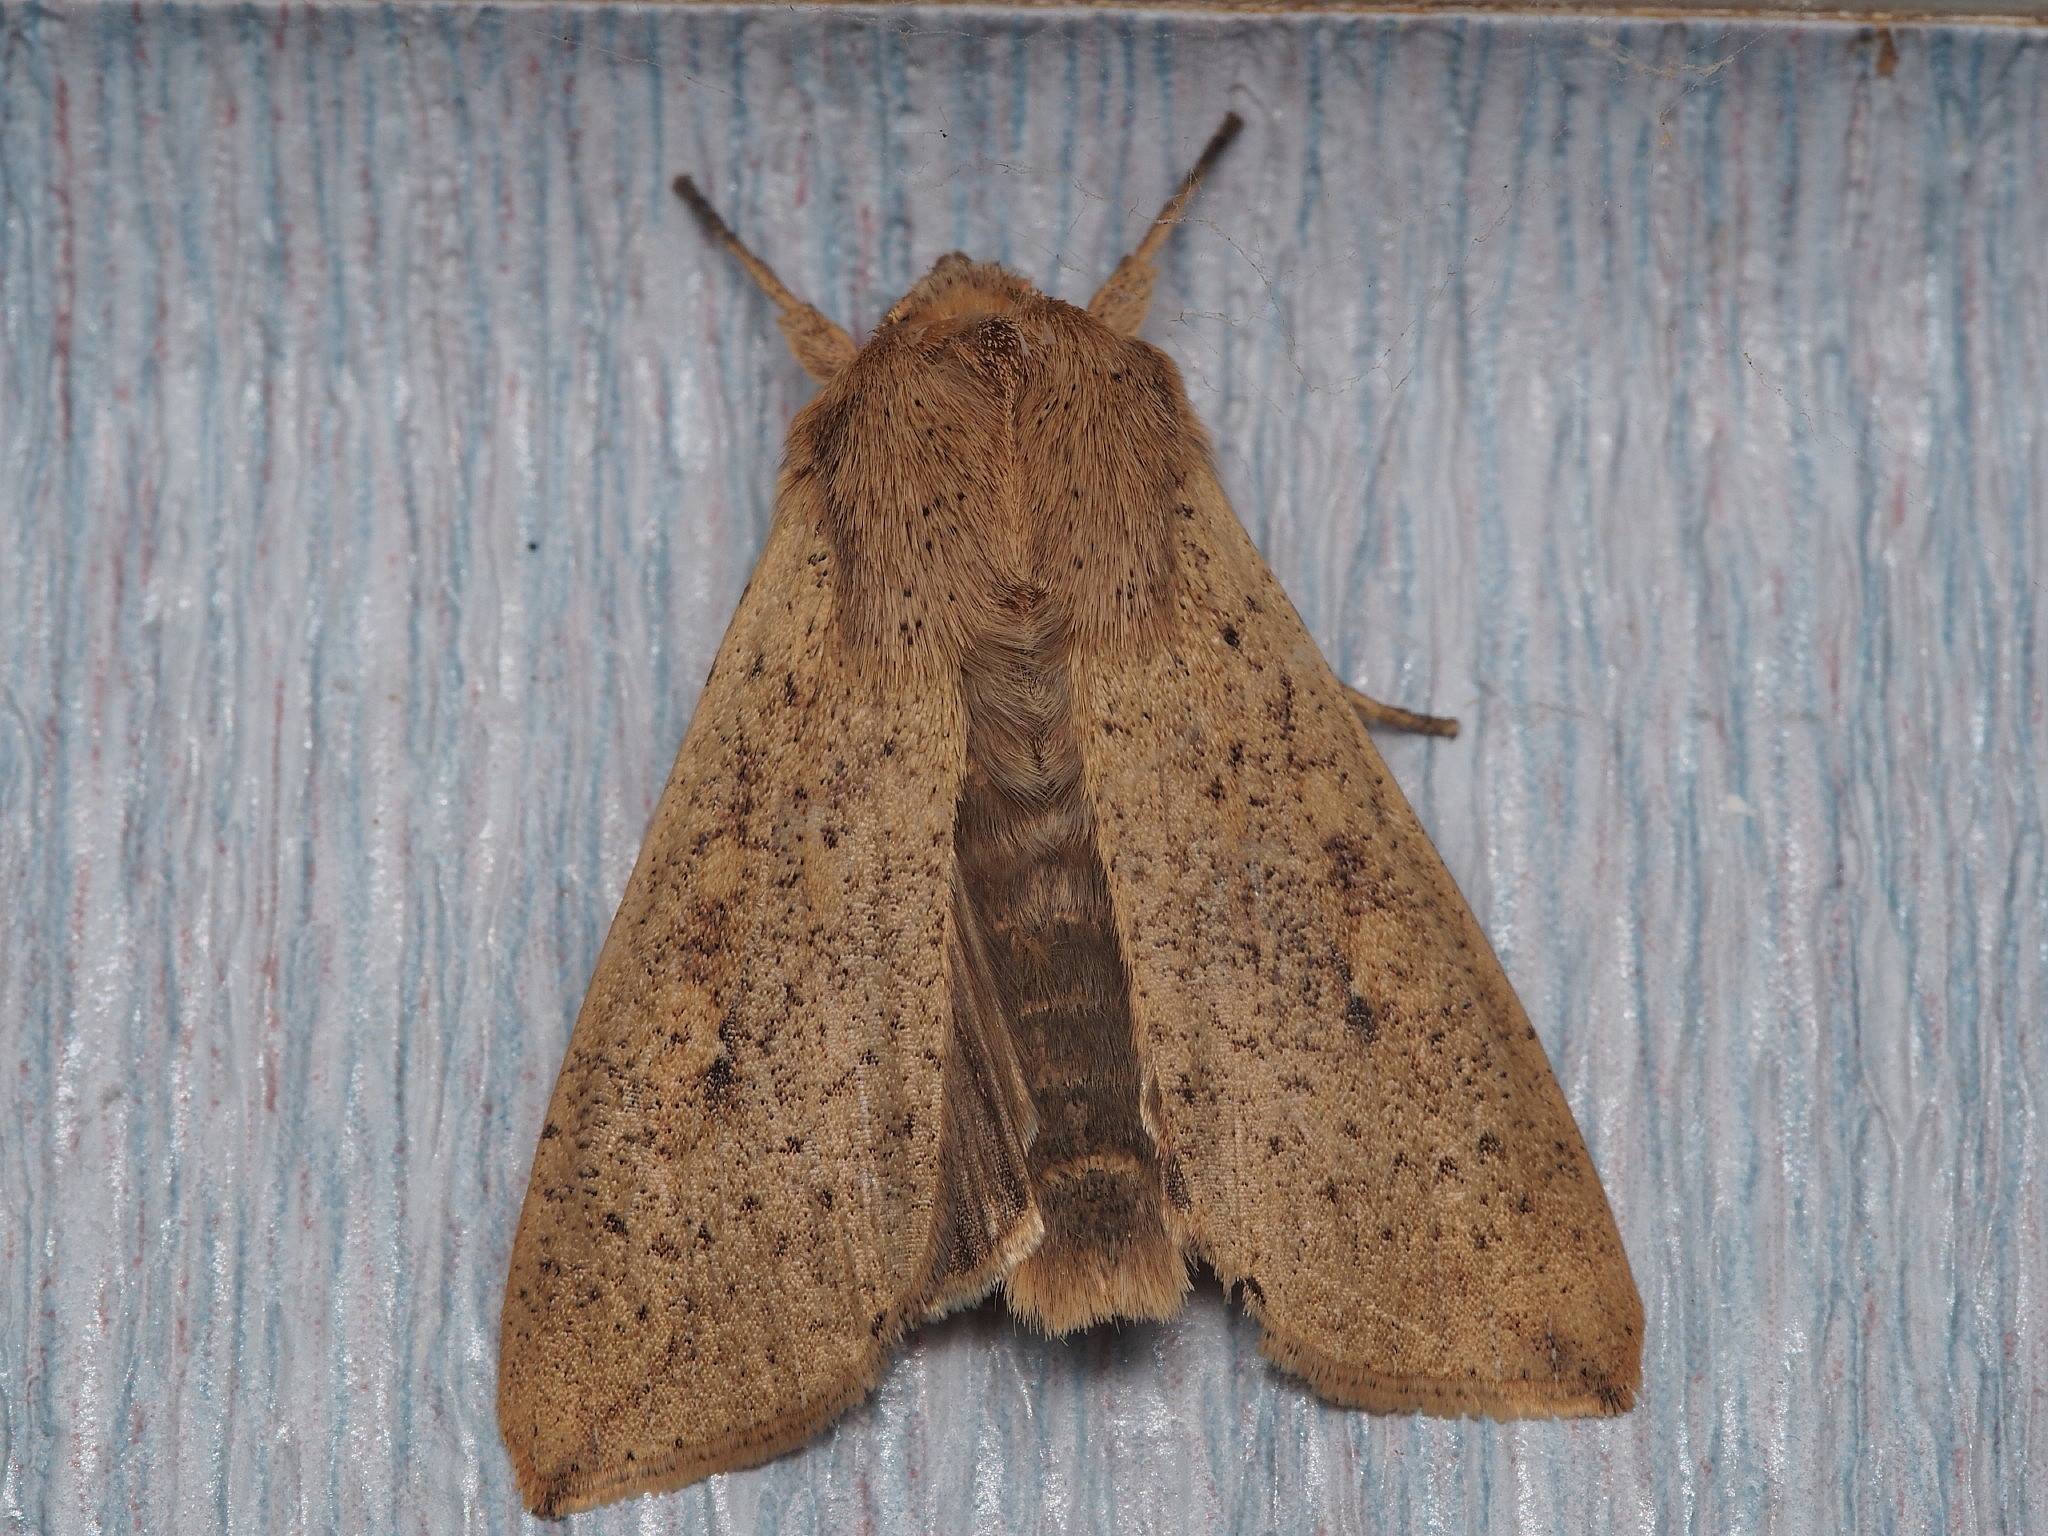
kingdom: Animalia
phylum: Arthropoda
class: Insecta
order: Lepidoptera
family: Noctuidae
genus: Mythimna
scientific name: Mythimna separata
